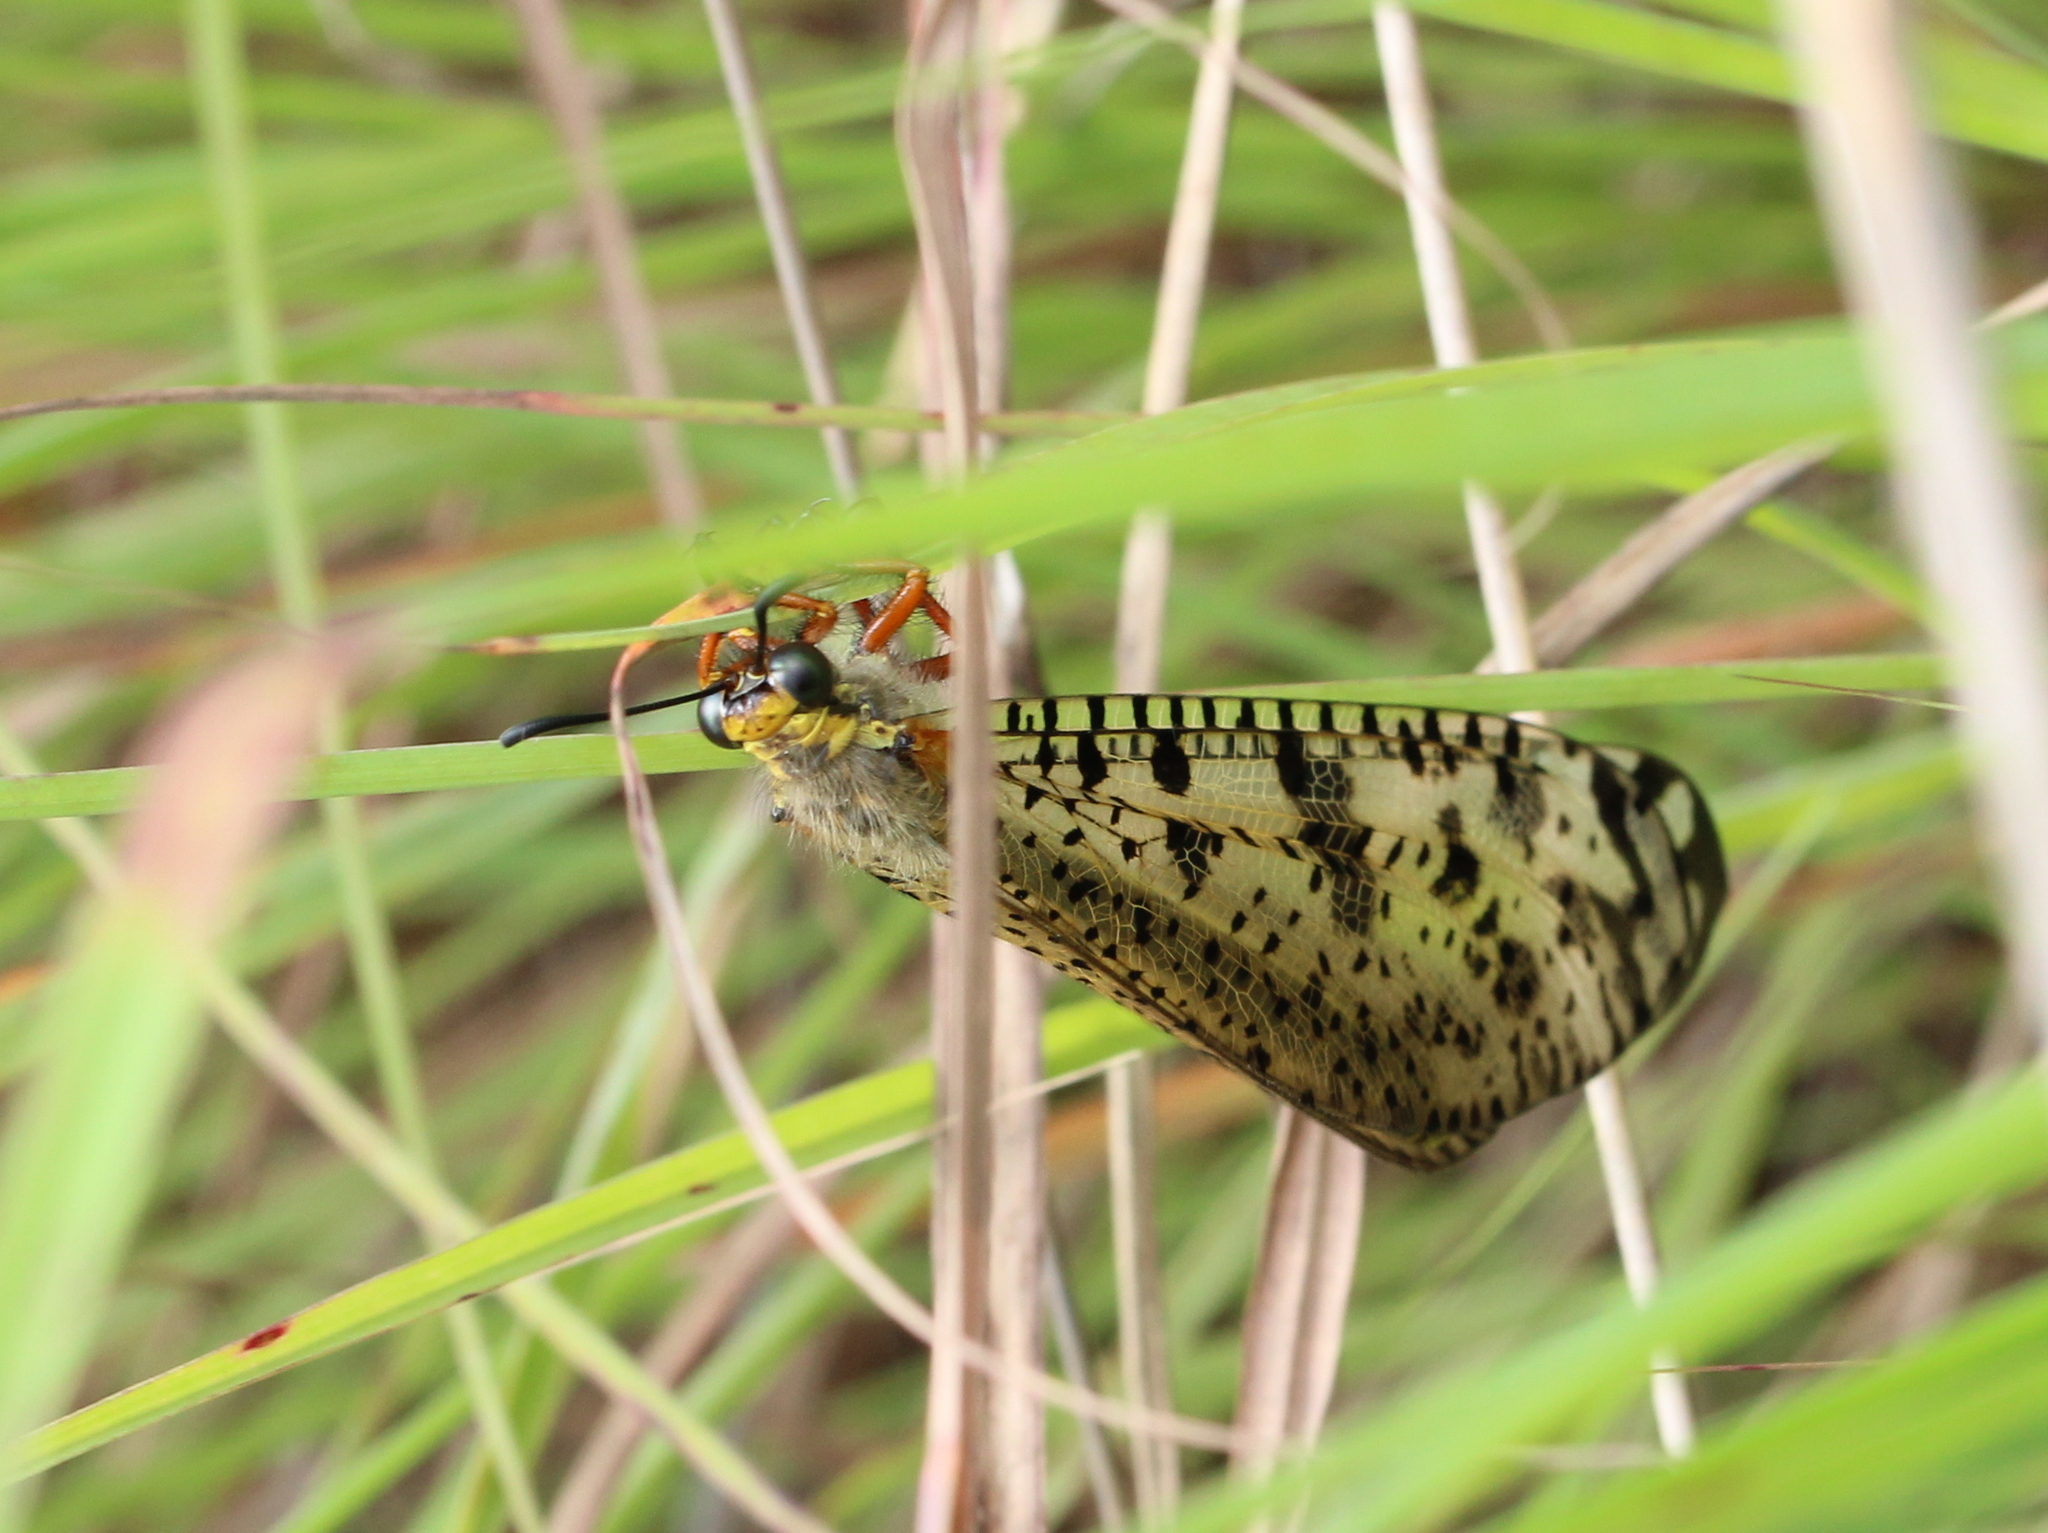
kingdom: Animalia
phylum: Arthropoda
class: Insecta
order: Neuroptera
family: Myrmeleontidae
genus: Indopalpares
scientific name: Indopalpares pardus
